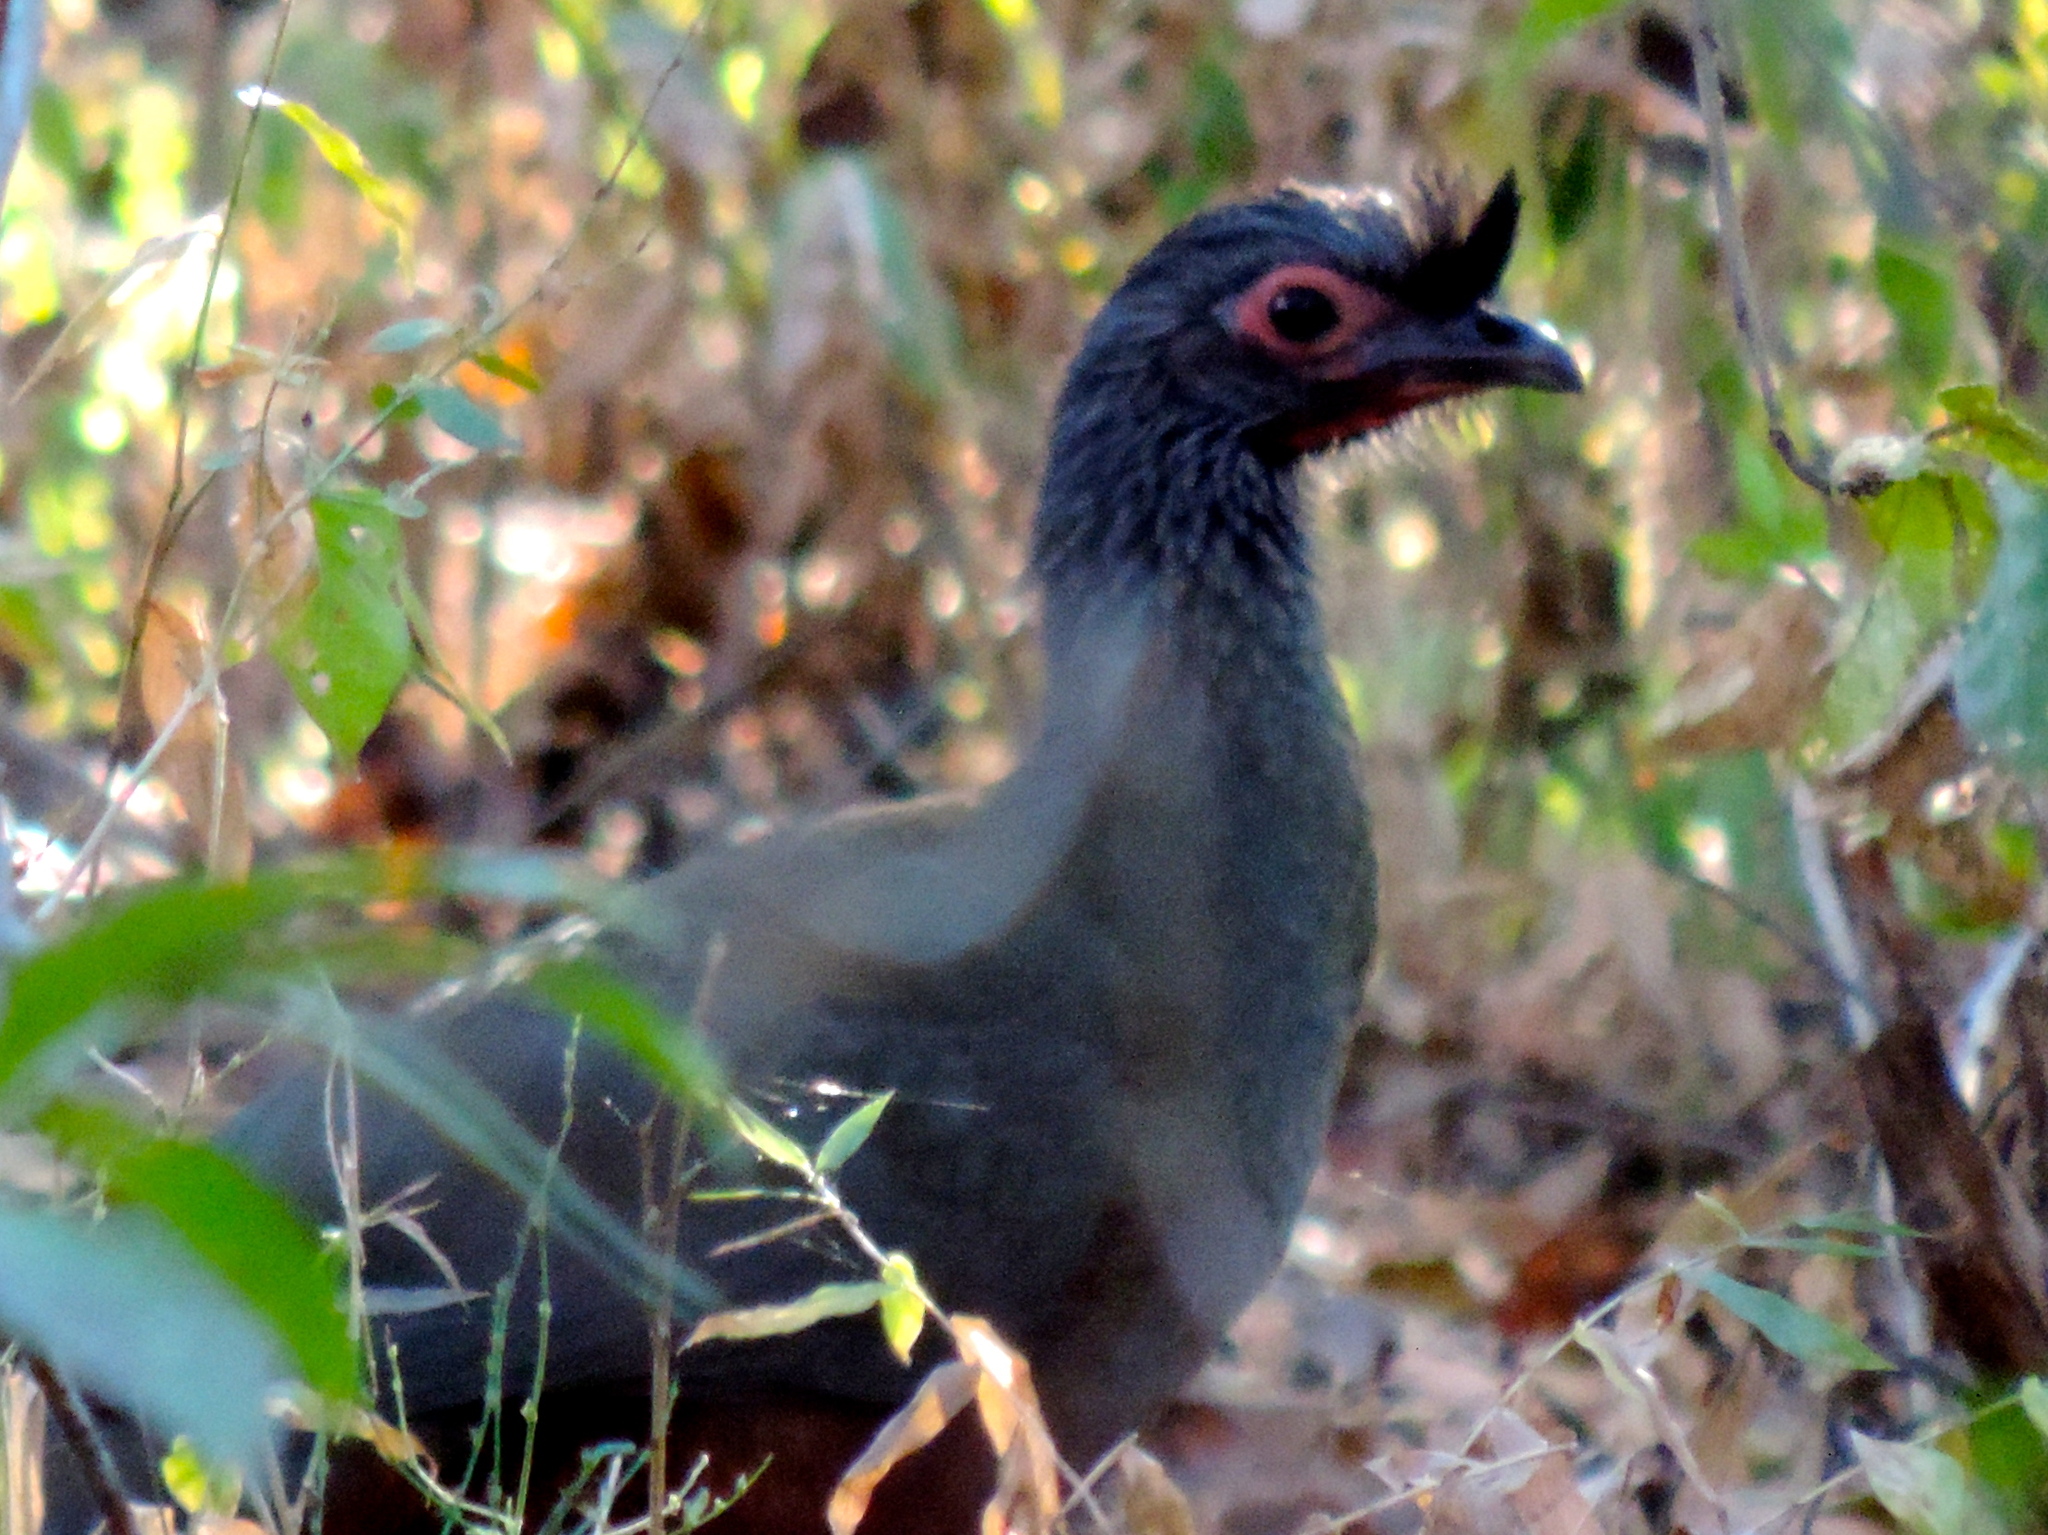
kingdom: Animalia
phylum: Chordata
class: Aves
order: Galliformes
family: Cracidae
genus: Ortalis
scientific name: Ortalis wagleri
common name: Rufous-bellied chachalaca
